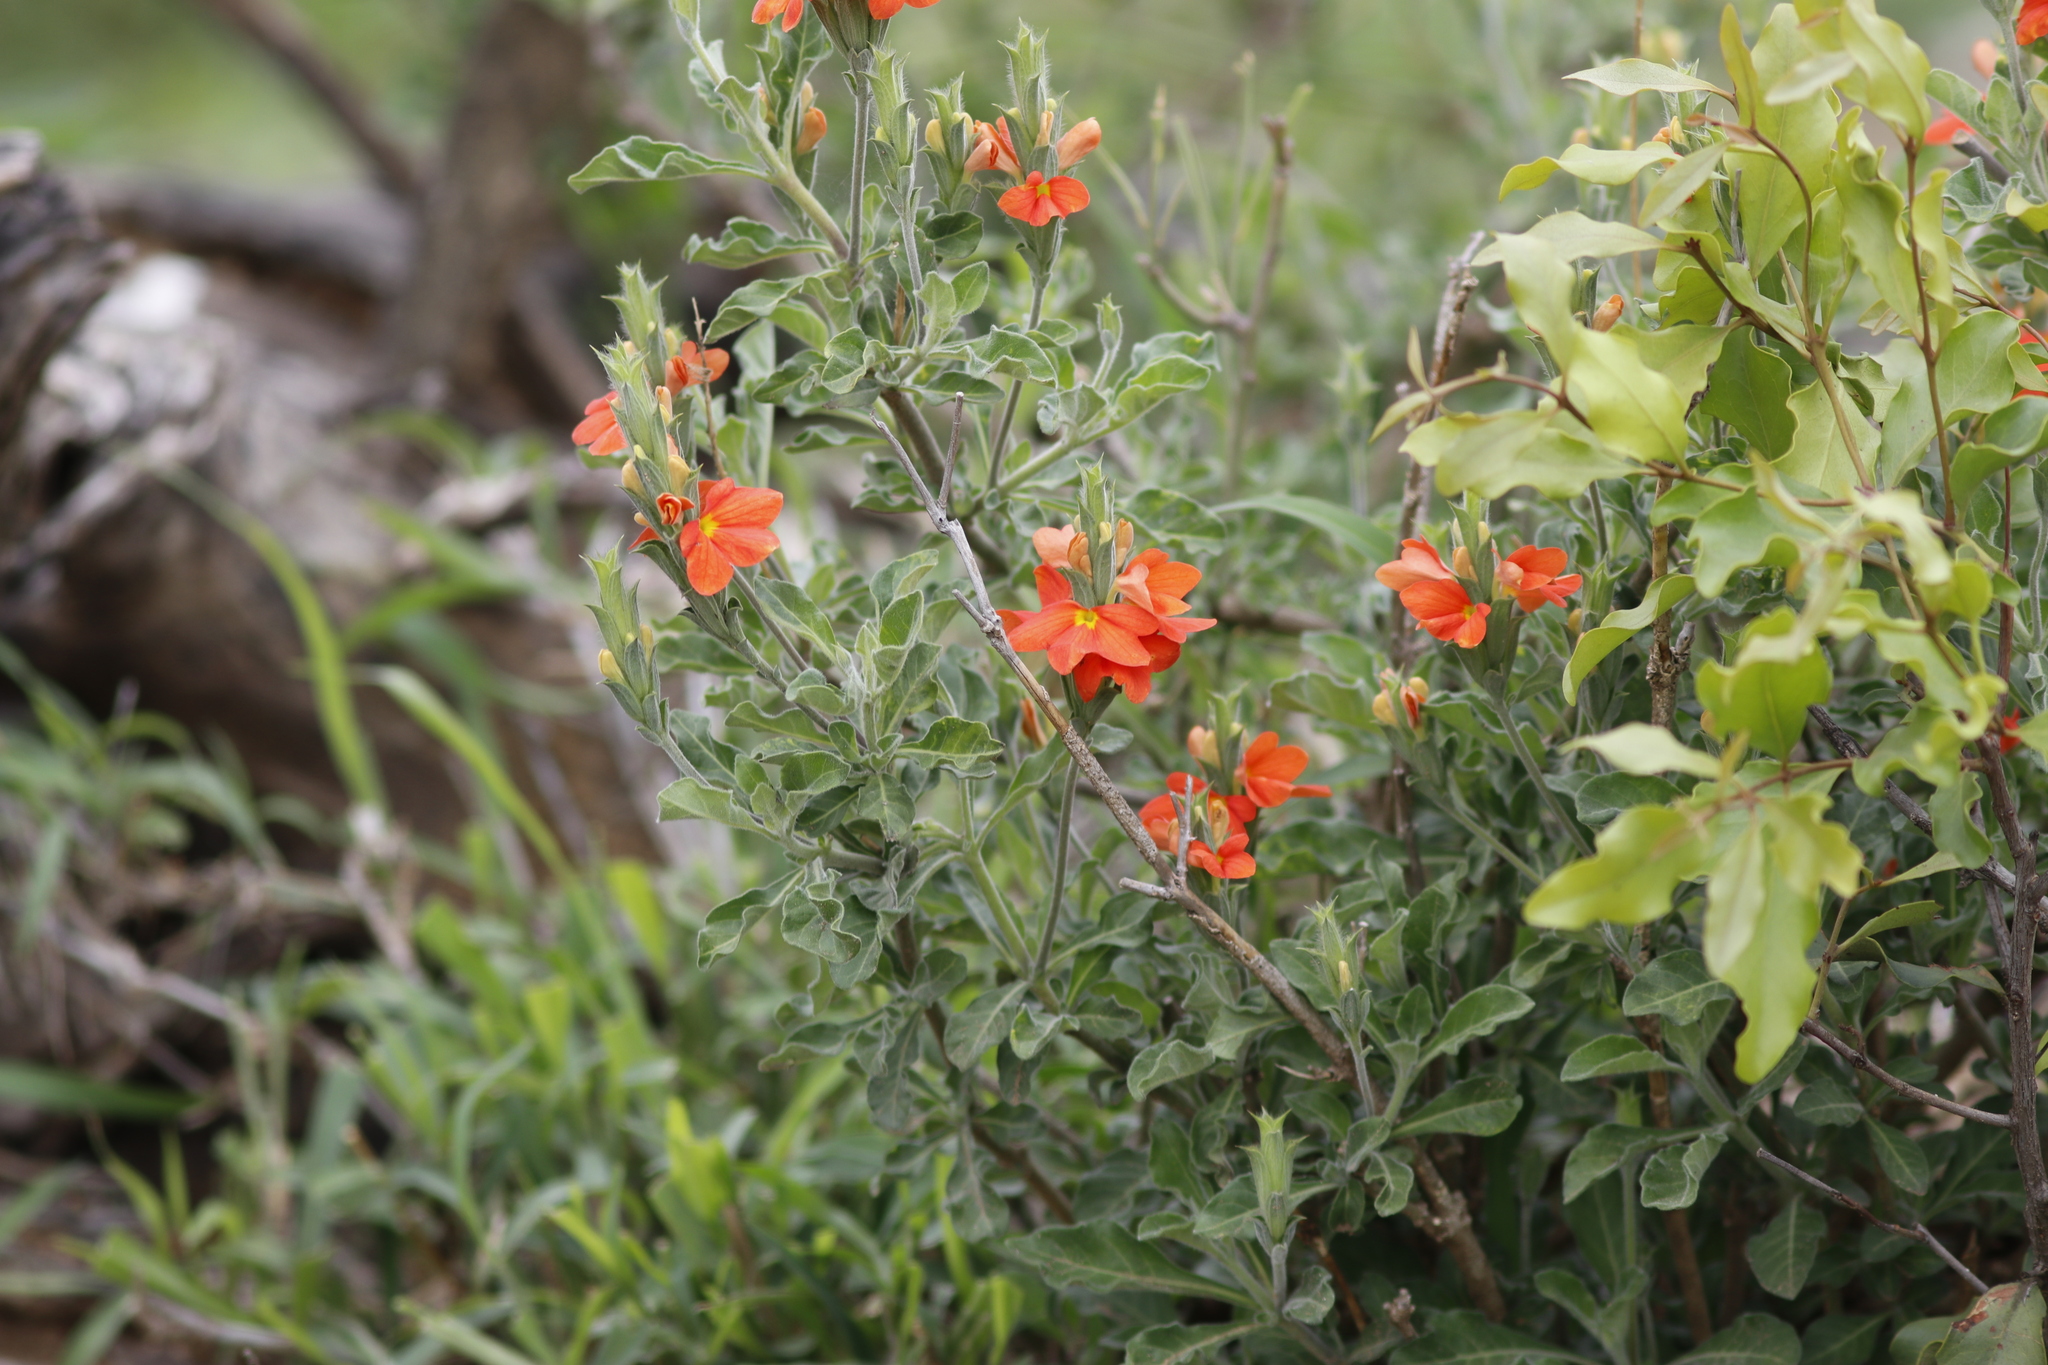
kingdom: Plantae
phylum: Tracheophyta
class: Magnoliopsida
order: Lamiales
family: Acanthaceae
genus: Crossandra
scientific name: Crossandra mucronata
